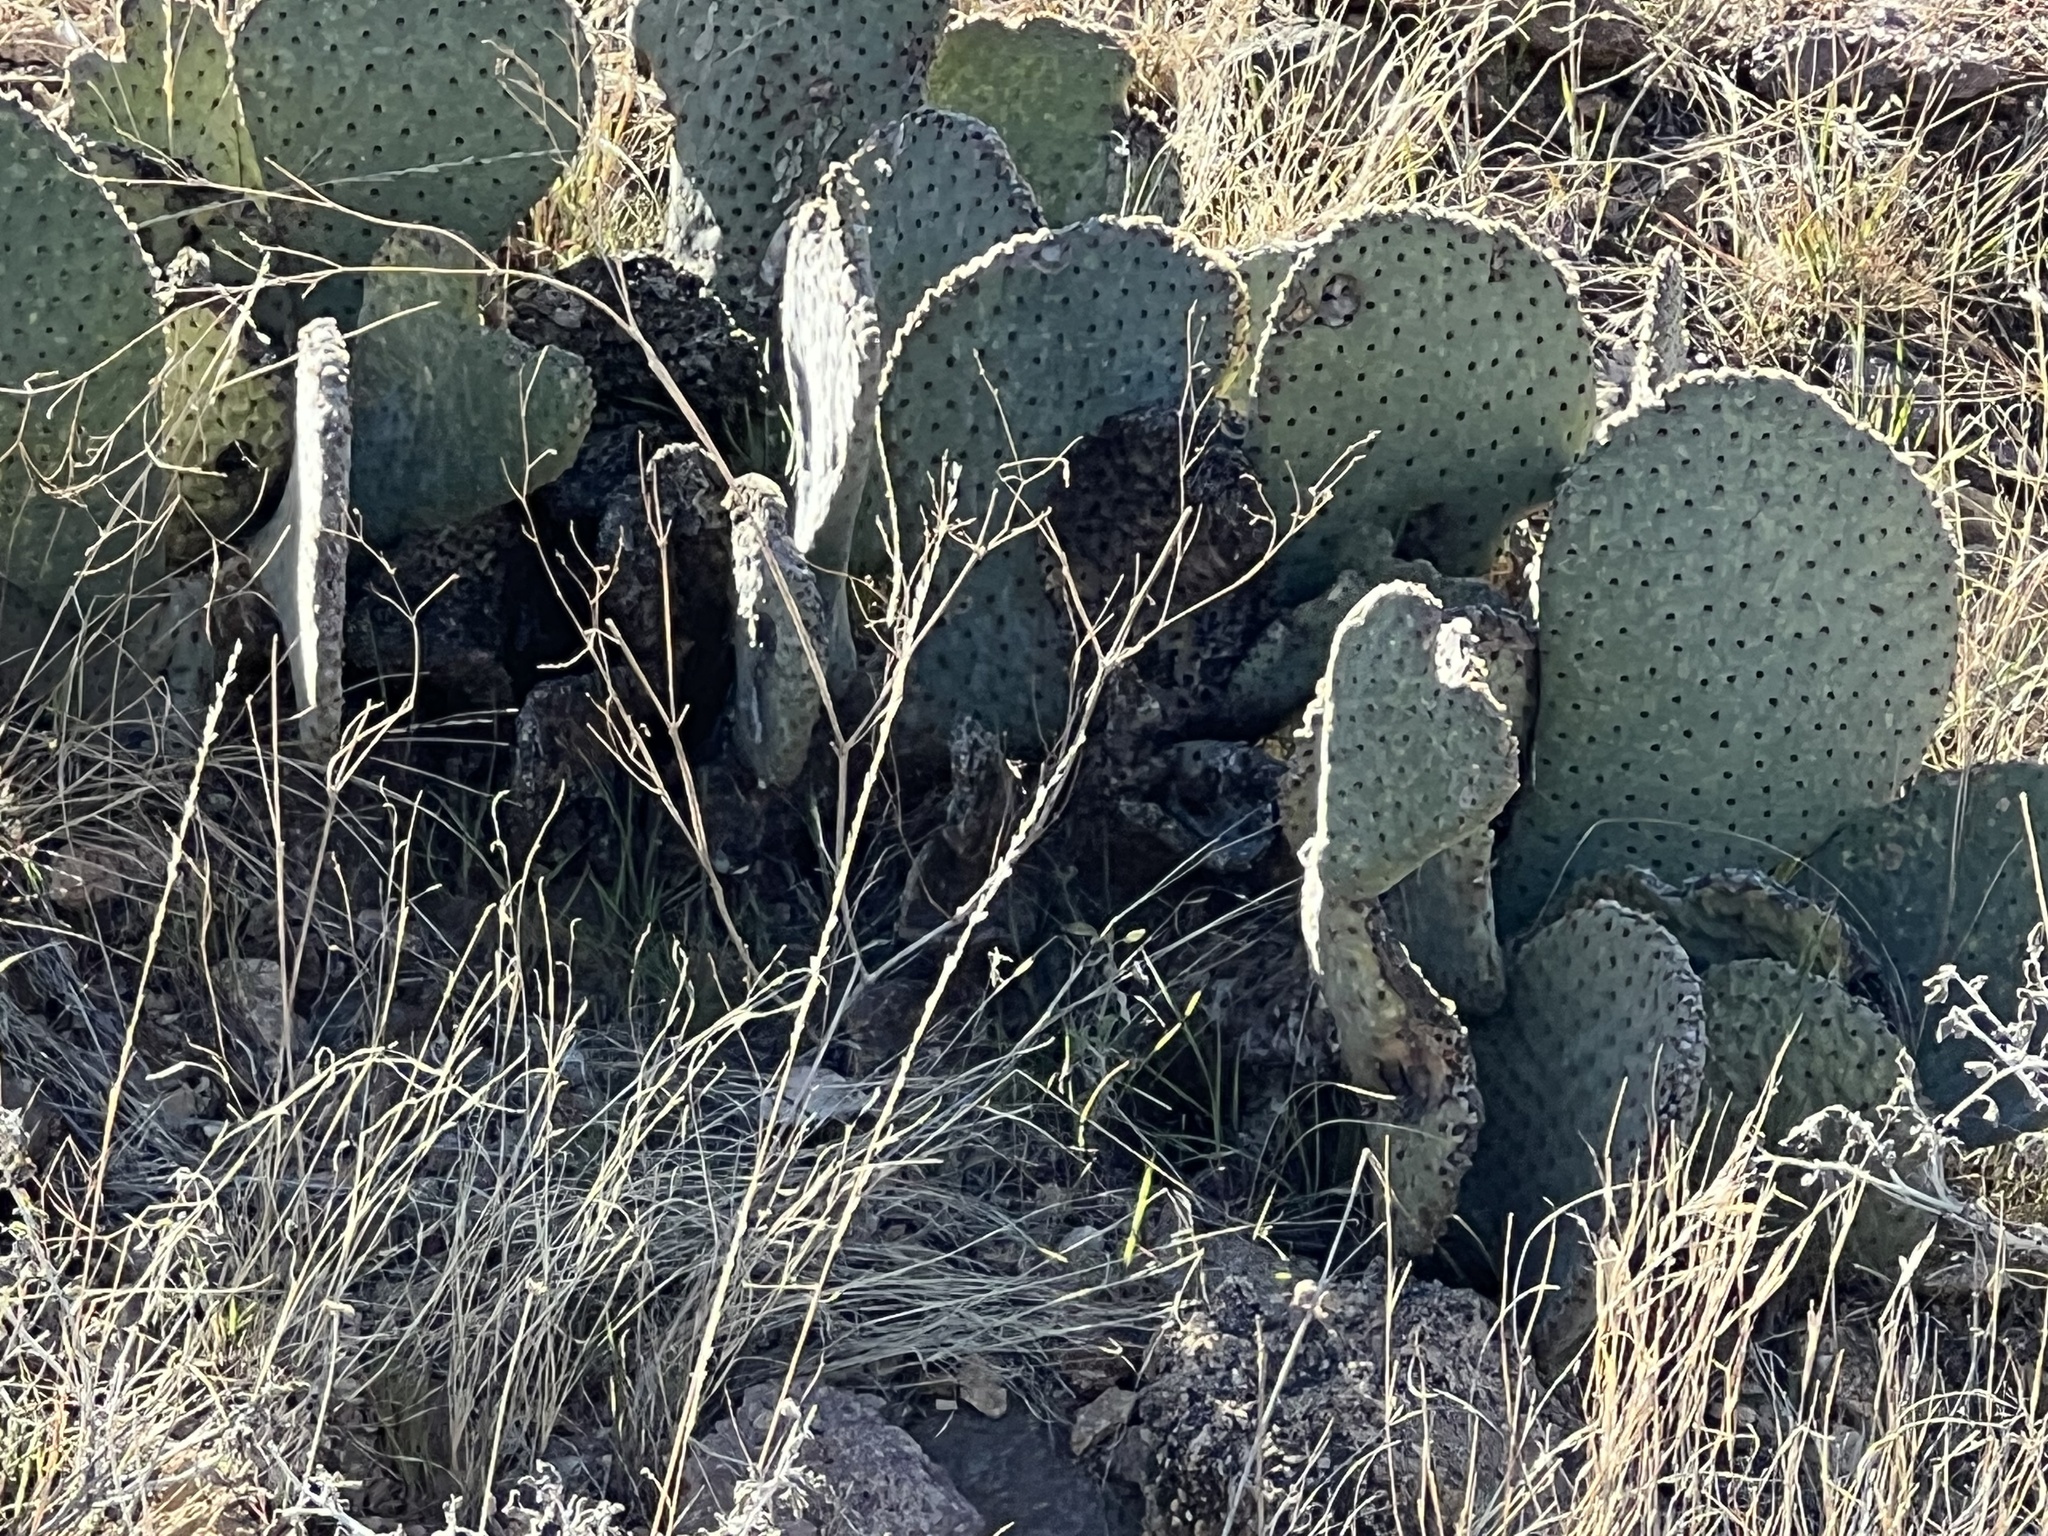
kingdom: Plantae
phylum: Tracheophyta
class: Magnoliopsida
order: Caryophyllales
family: Cactaceae
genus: Opuntia
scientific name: Opuntia basilaris
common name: Beavertail prickly-pear
